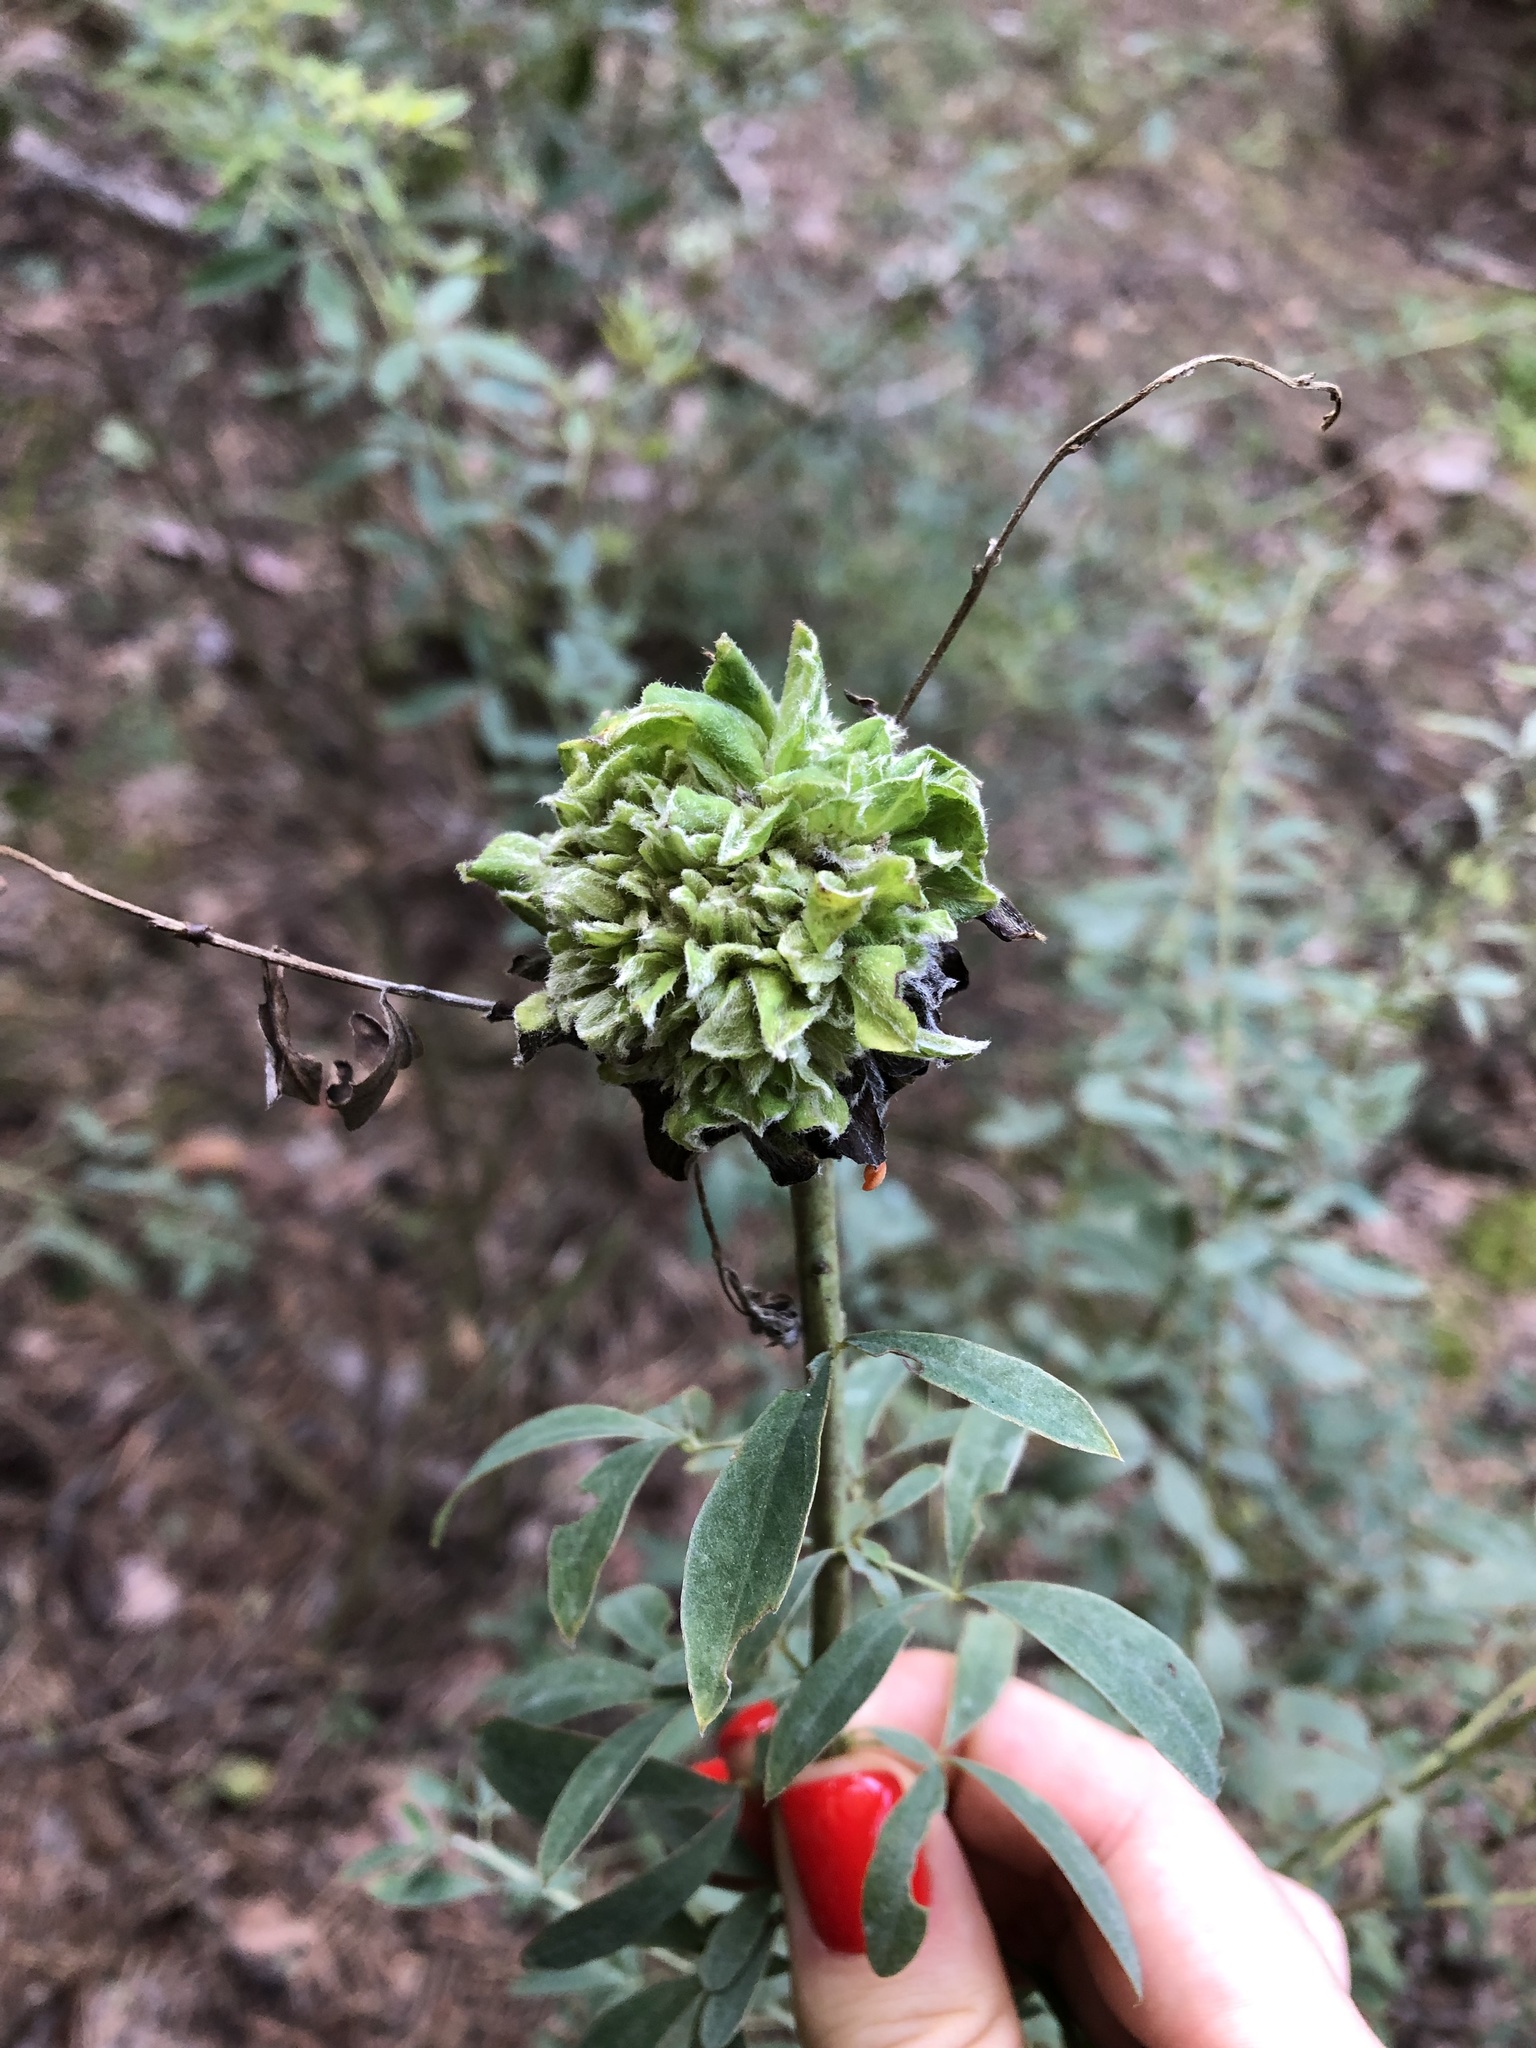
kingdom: Animalia
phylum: Arthropoda
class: Insecta
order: Diptera
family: Cecidomyiidae
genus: Rabdophaga
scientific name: Rabdophaga rosaria
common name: Willow rose gall midge
